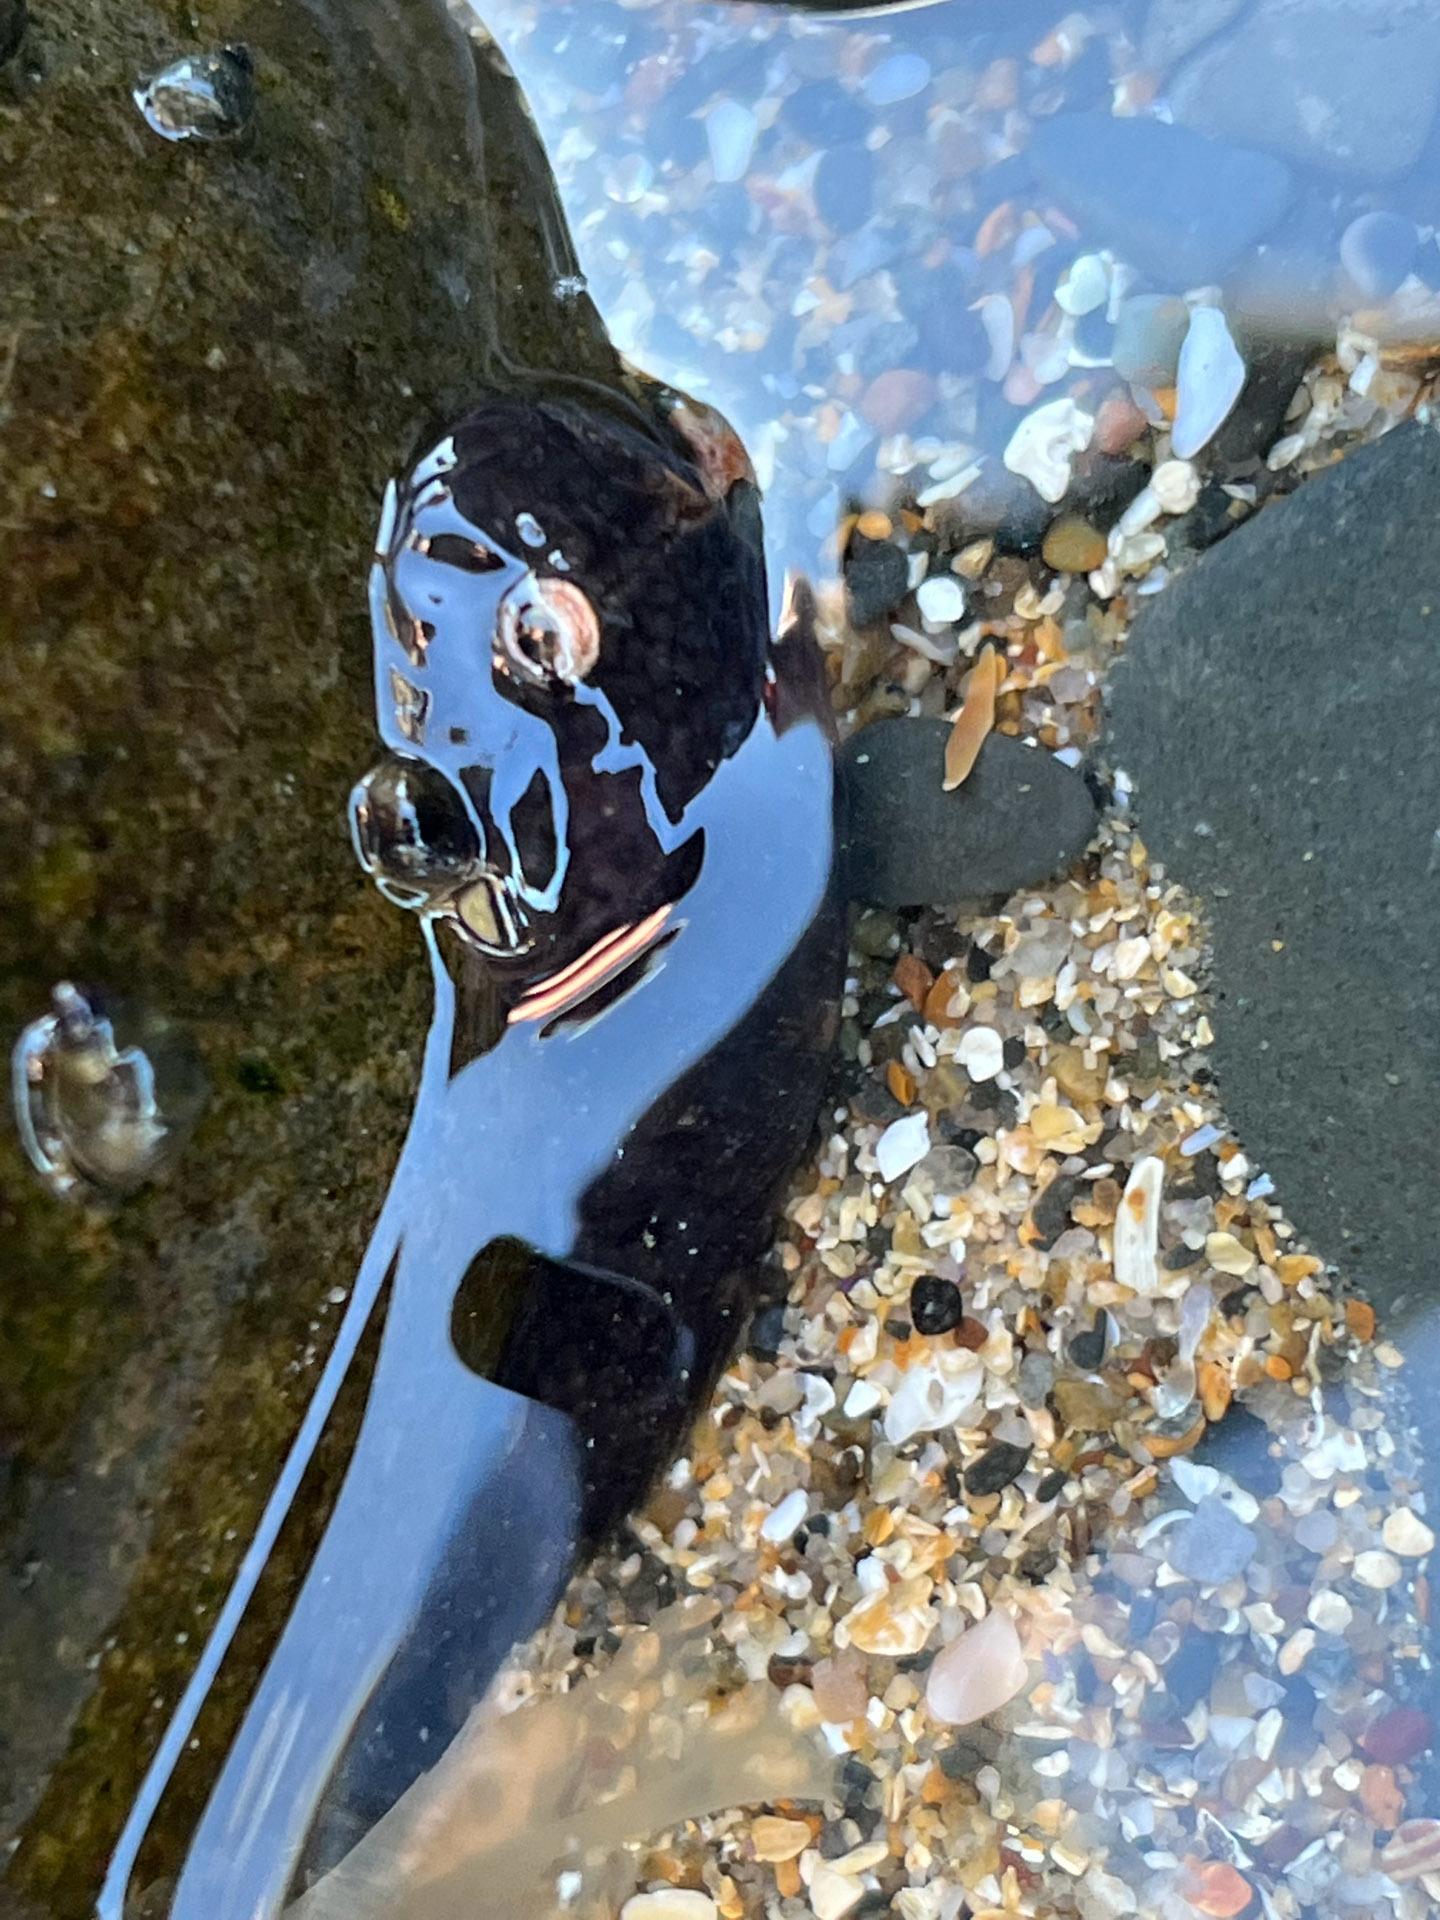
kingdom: Animalia
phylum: Chordata
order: Gobiesociformes
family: Gobiesocidae
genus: Gobiesox
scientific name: Gobiesox maeandricus
